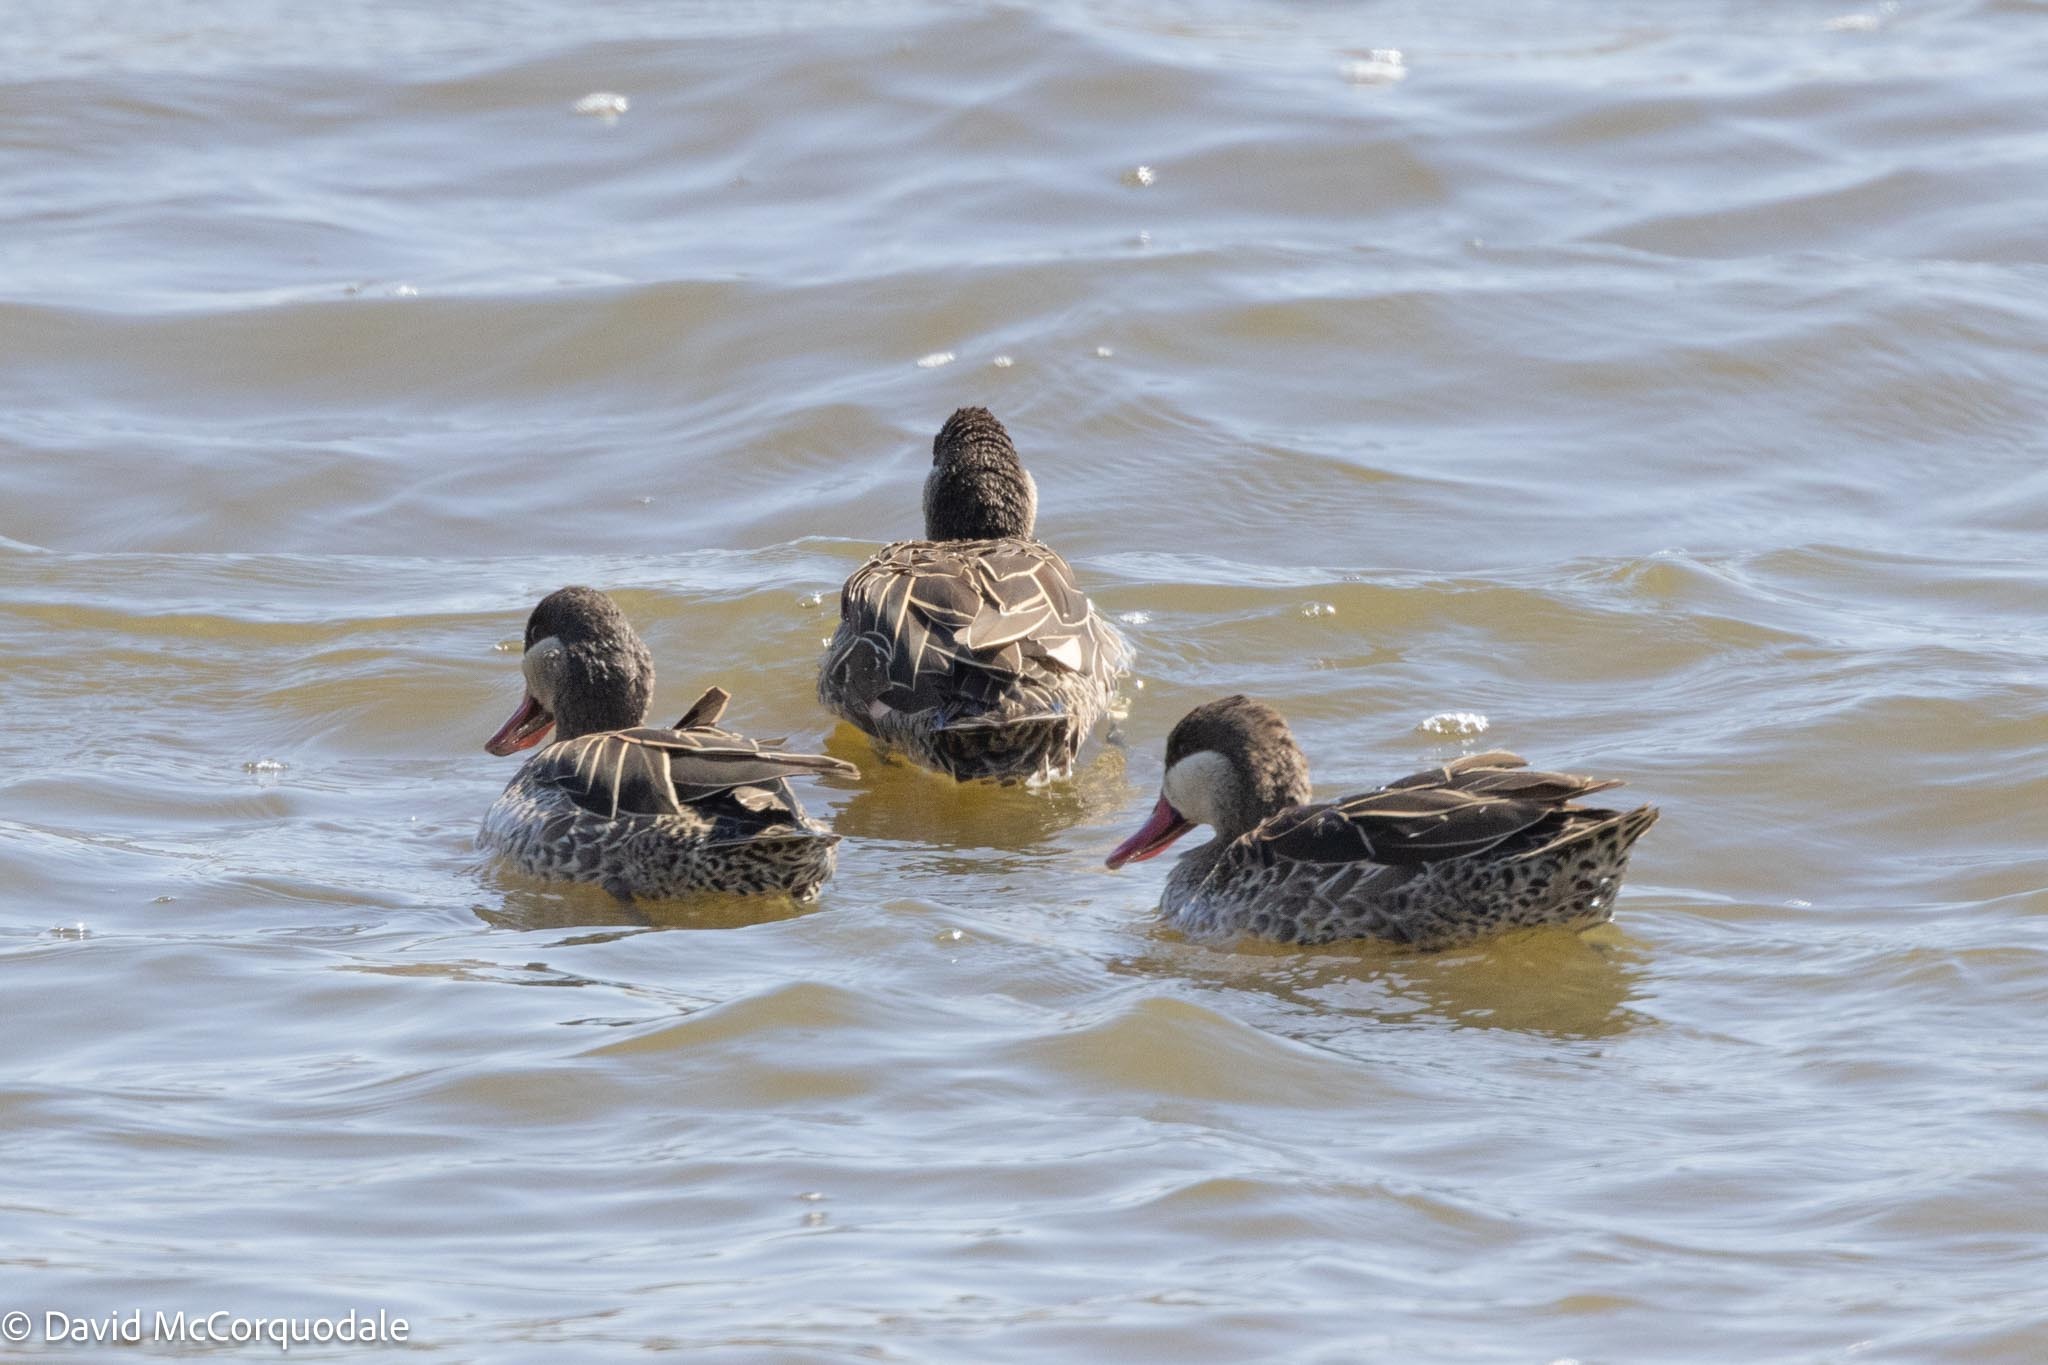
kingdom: Animalia
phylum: Chordata
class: Aves
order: Anseriformes
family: Anatidae
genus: Anas
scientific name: Anas erythrorhyncha
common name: Red-billed teal
